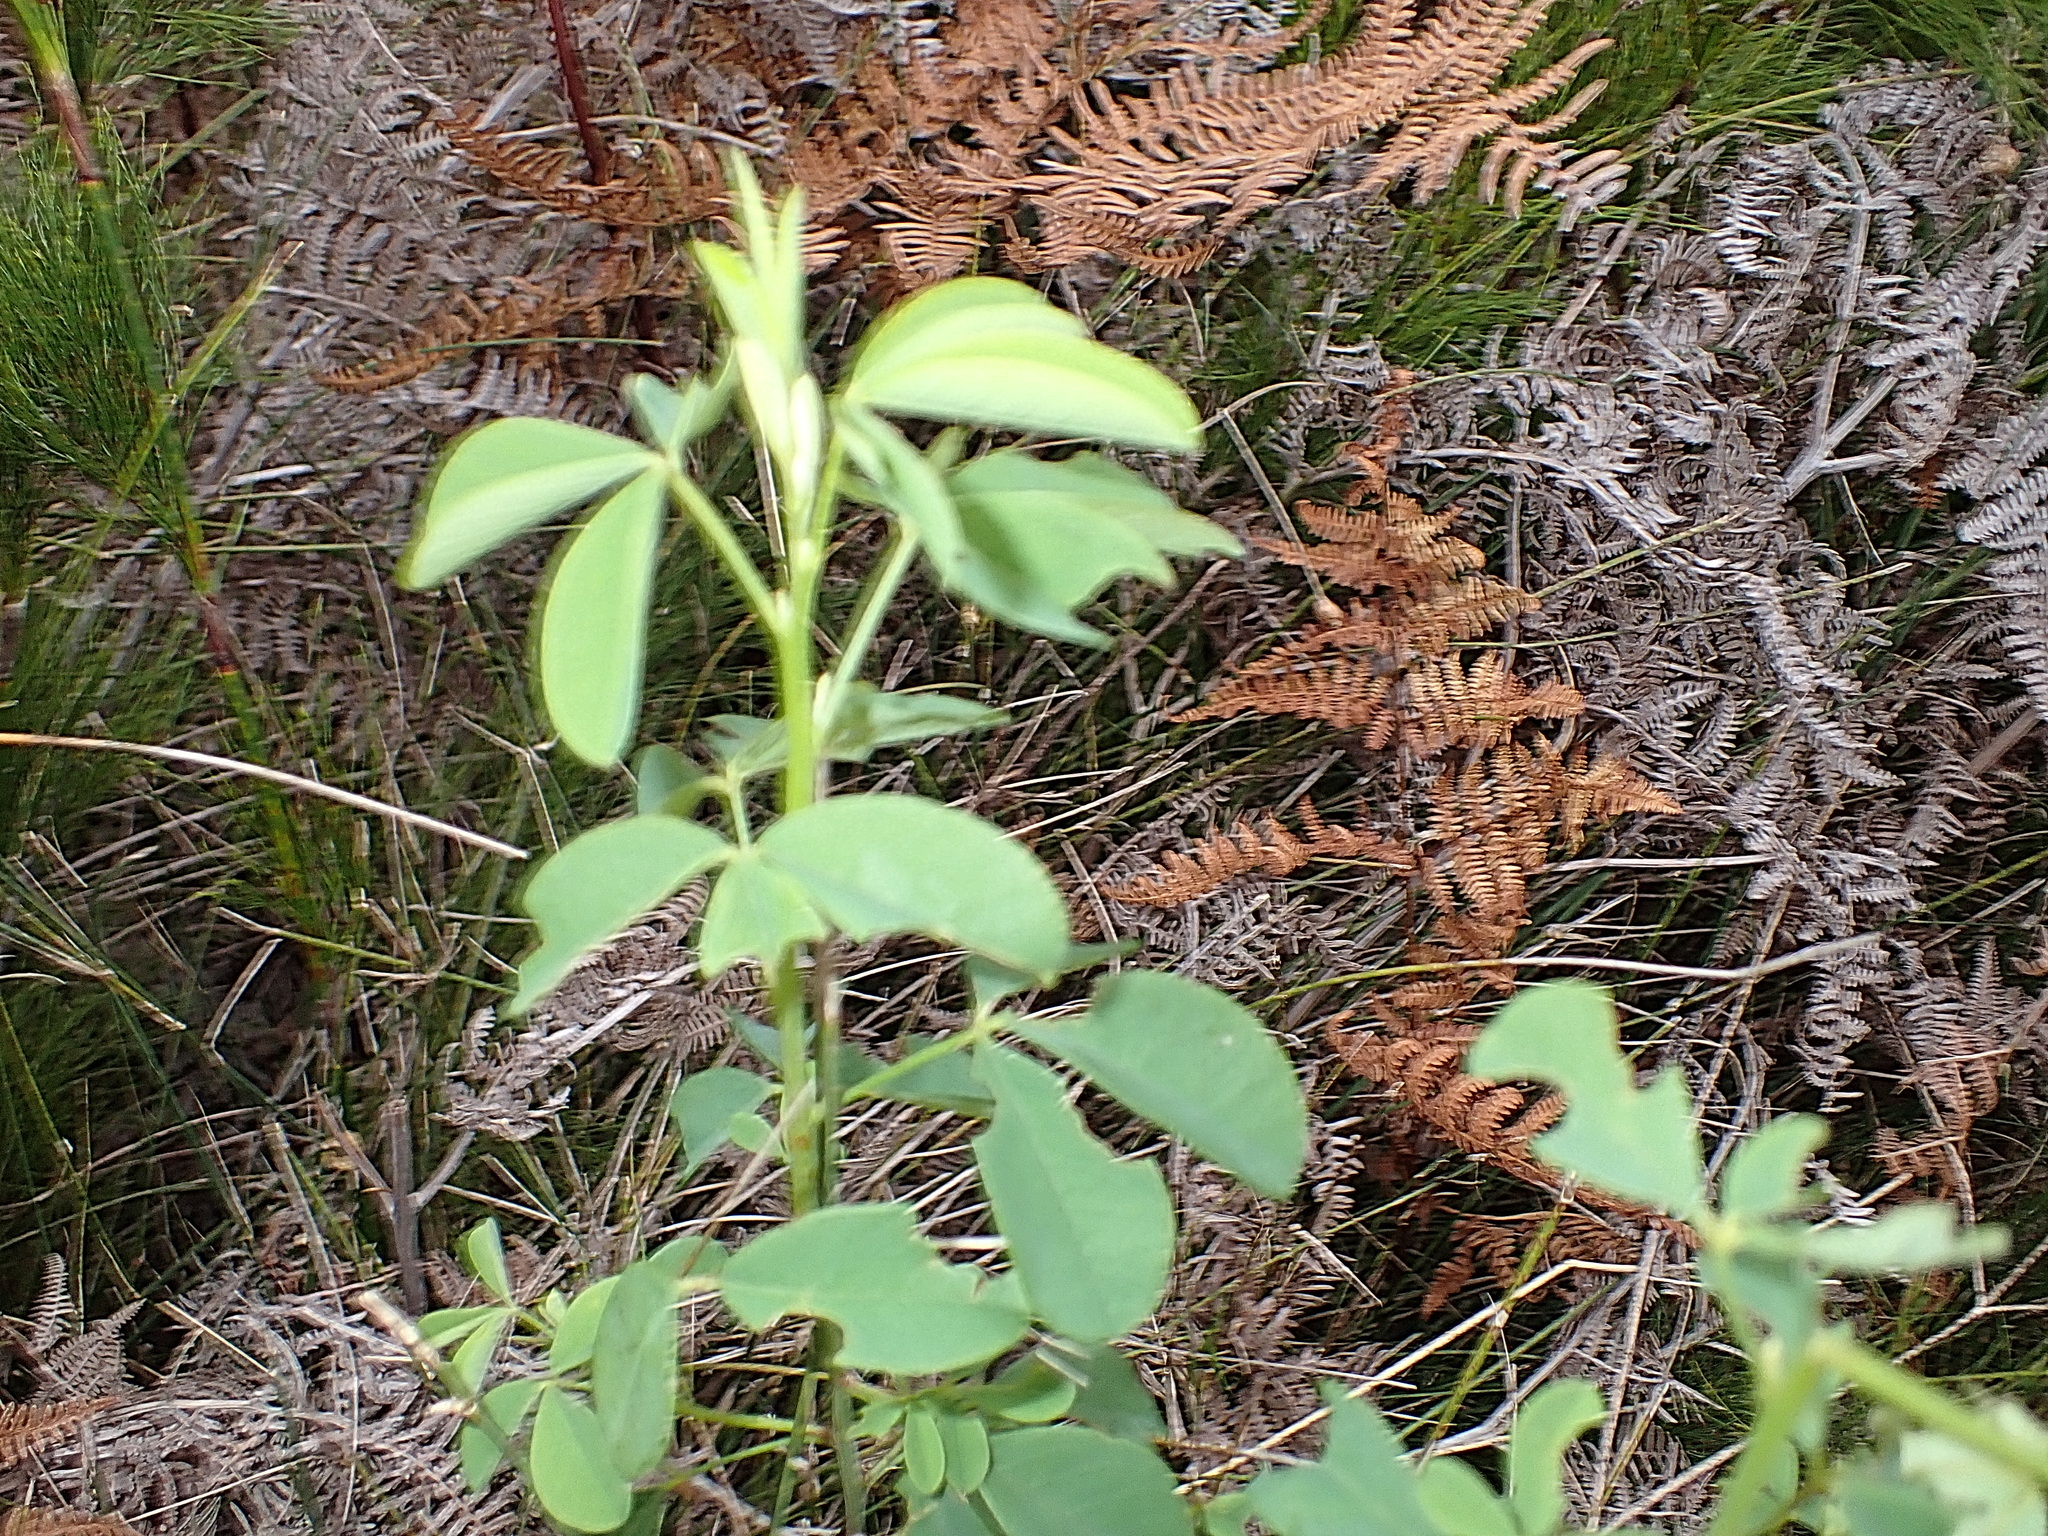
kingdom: Plantae
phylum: Tracheophyta
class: Magnoliopsida
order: Fabales
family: Fabaceae
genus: Hypocalyptus
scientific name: Hypocalyptus coluteoides
